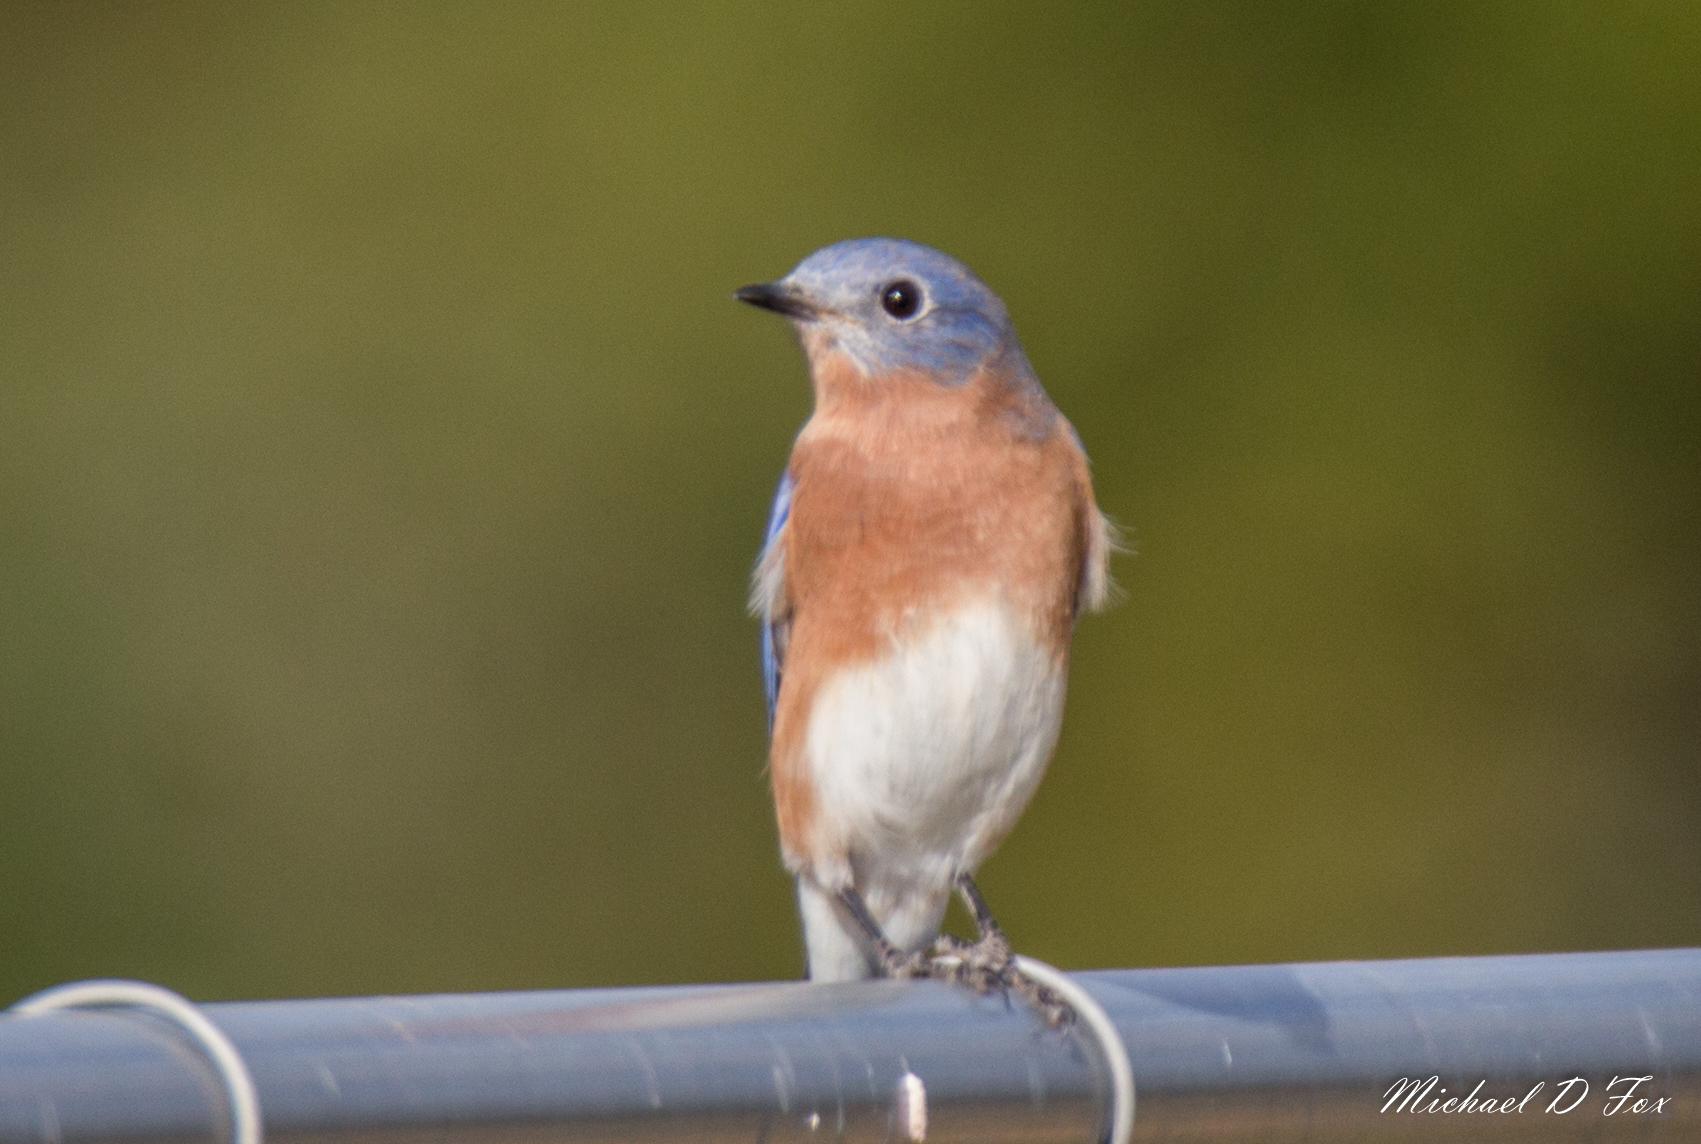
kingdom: Animalia
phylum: Chordata
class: Aves
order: Passeriformes
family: Turdidae
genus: Sialia
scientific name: Sialia sialis
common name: Eastern bluebird
